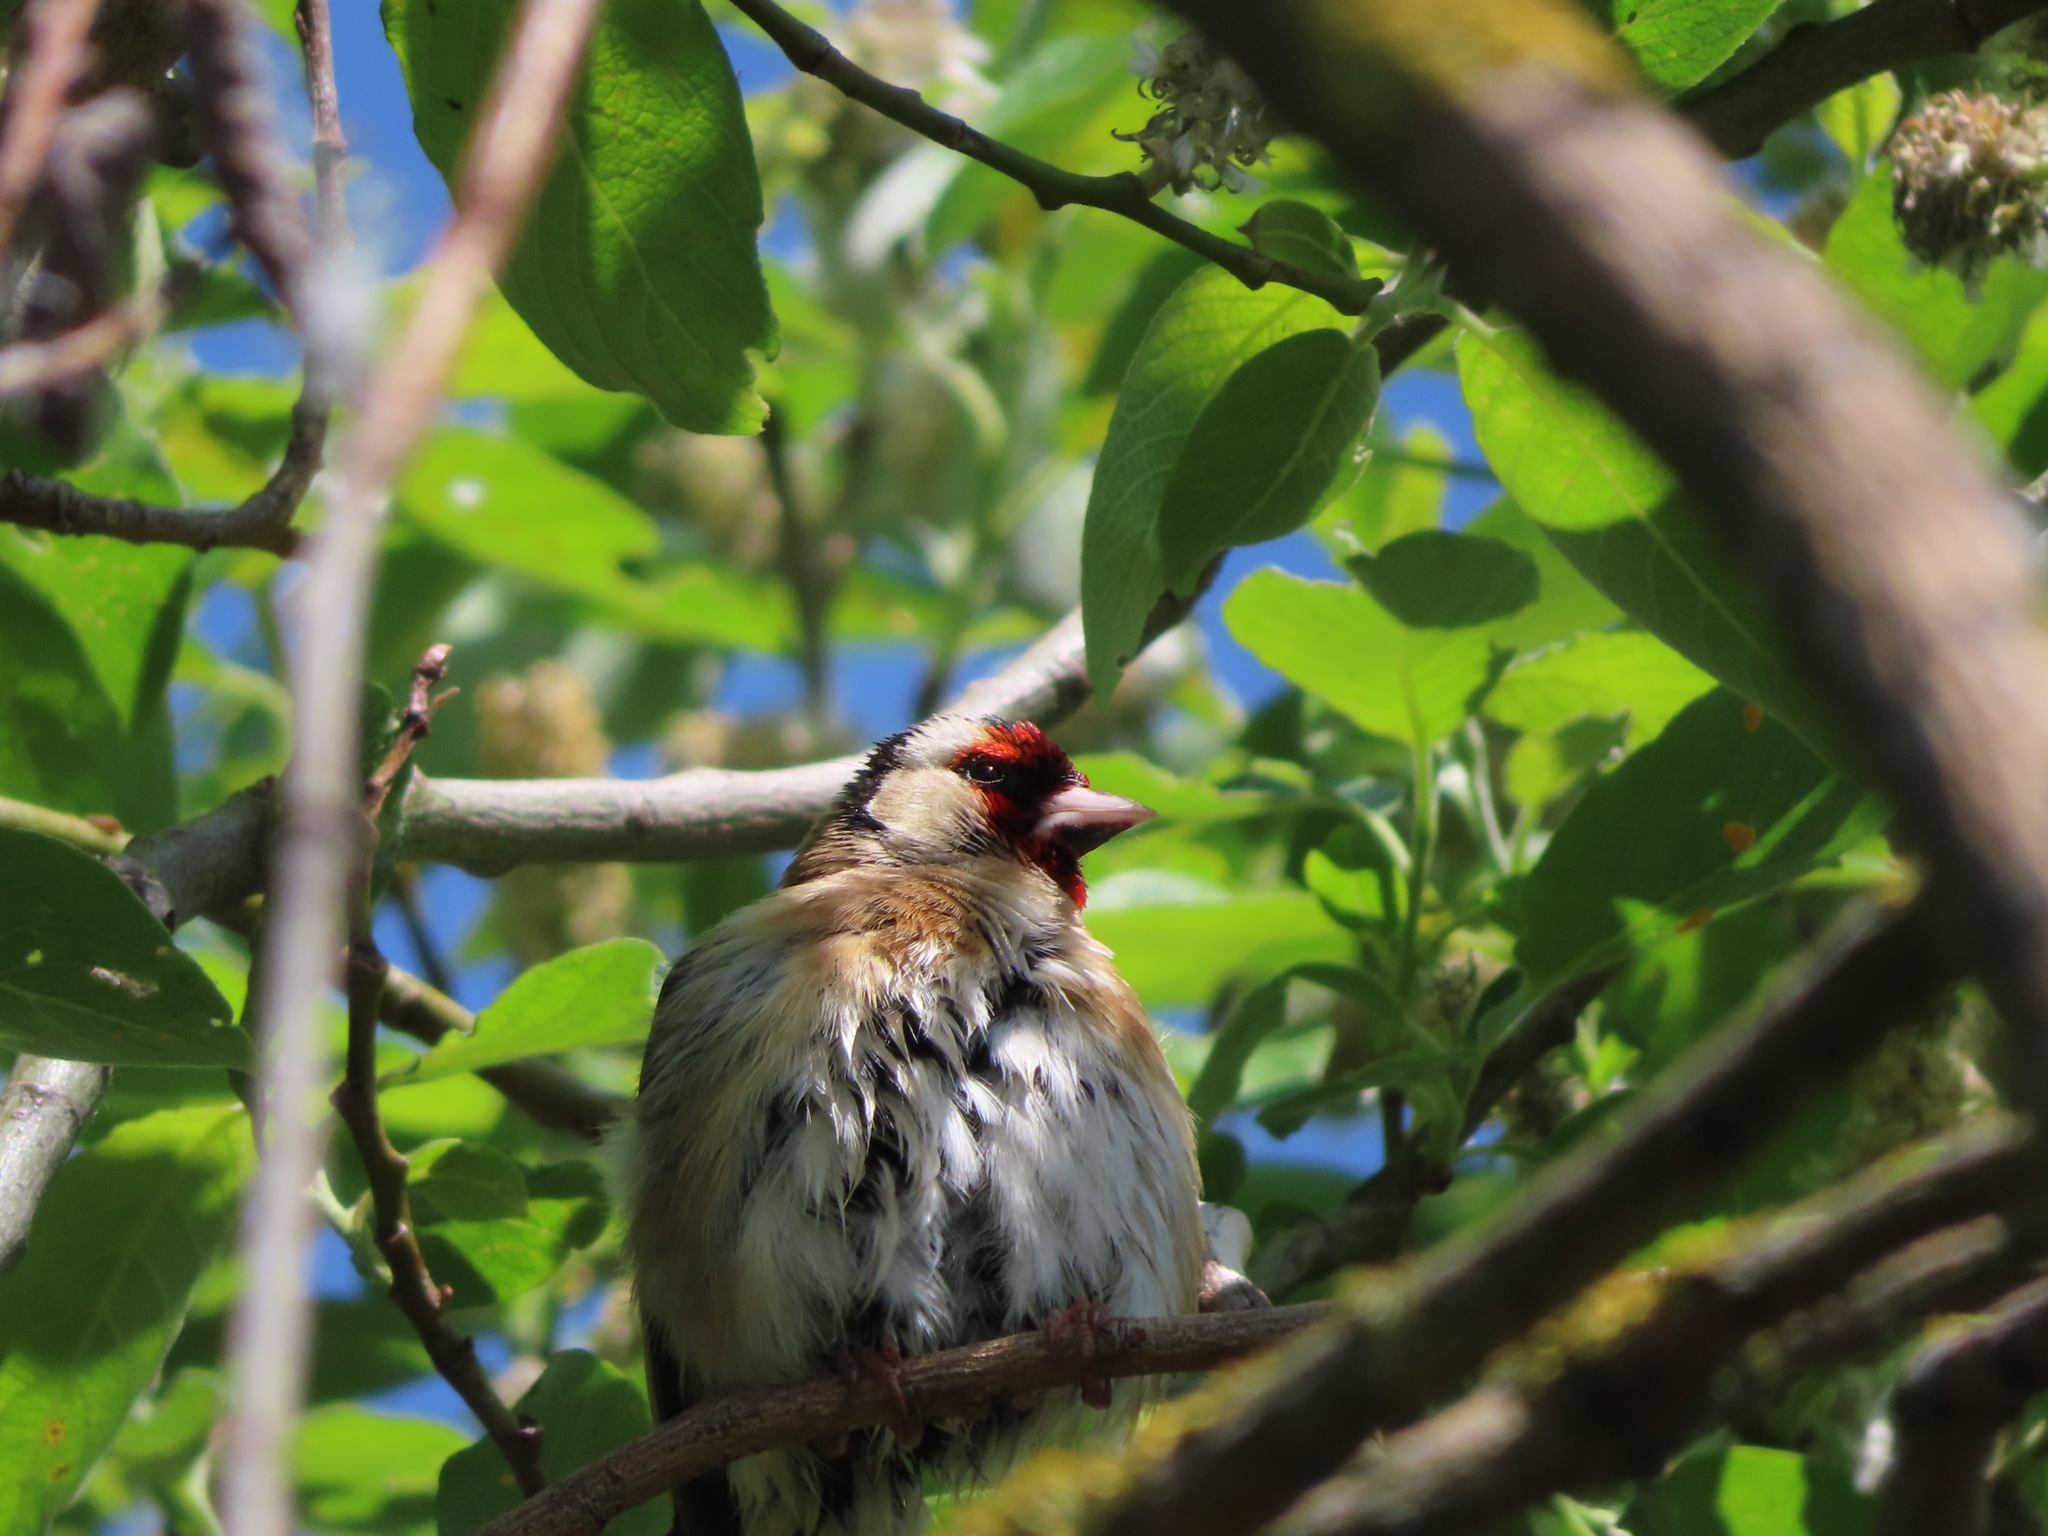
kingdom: Animalia
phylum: Chordata
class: Aves
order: Passeriformes
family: Fringillidae
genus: Carduelis
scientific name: Carduelis carduelis
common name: European goldfinch
